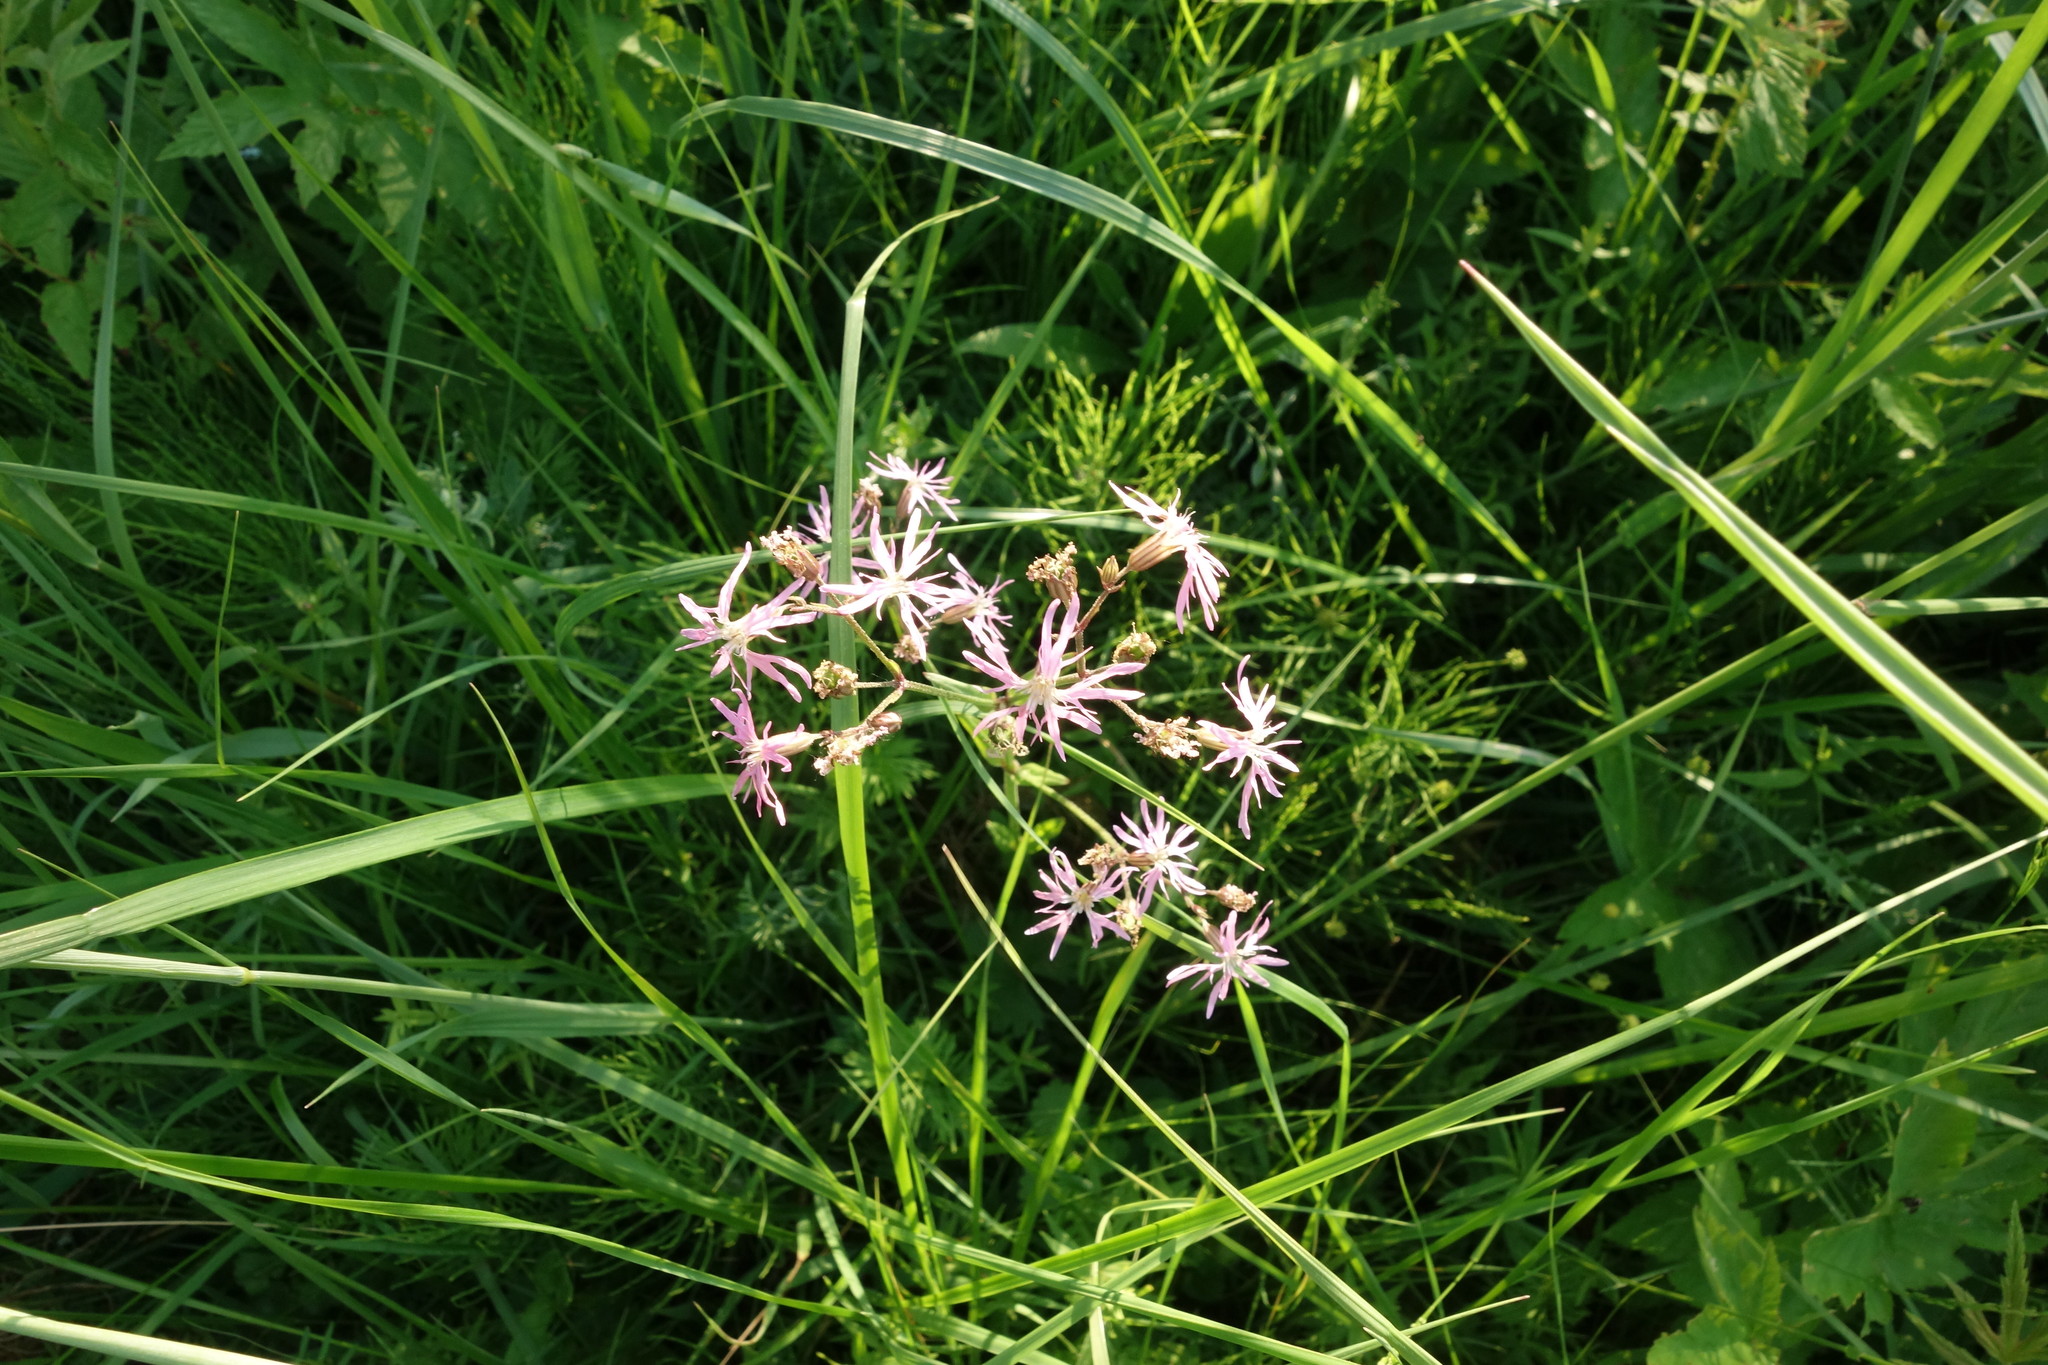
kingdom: Plantae
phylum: Tracheophyta
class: Magnoliopsida
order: Caryophyllales
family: Caryophyllaceae
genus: Silene
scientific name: Silene flos-cuculi
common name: Ragged-robin
